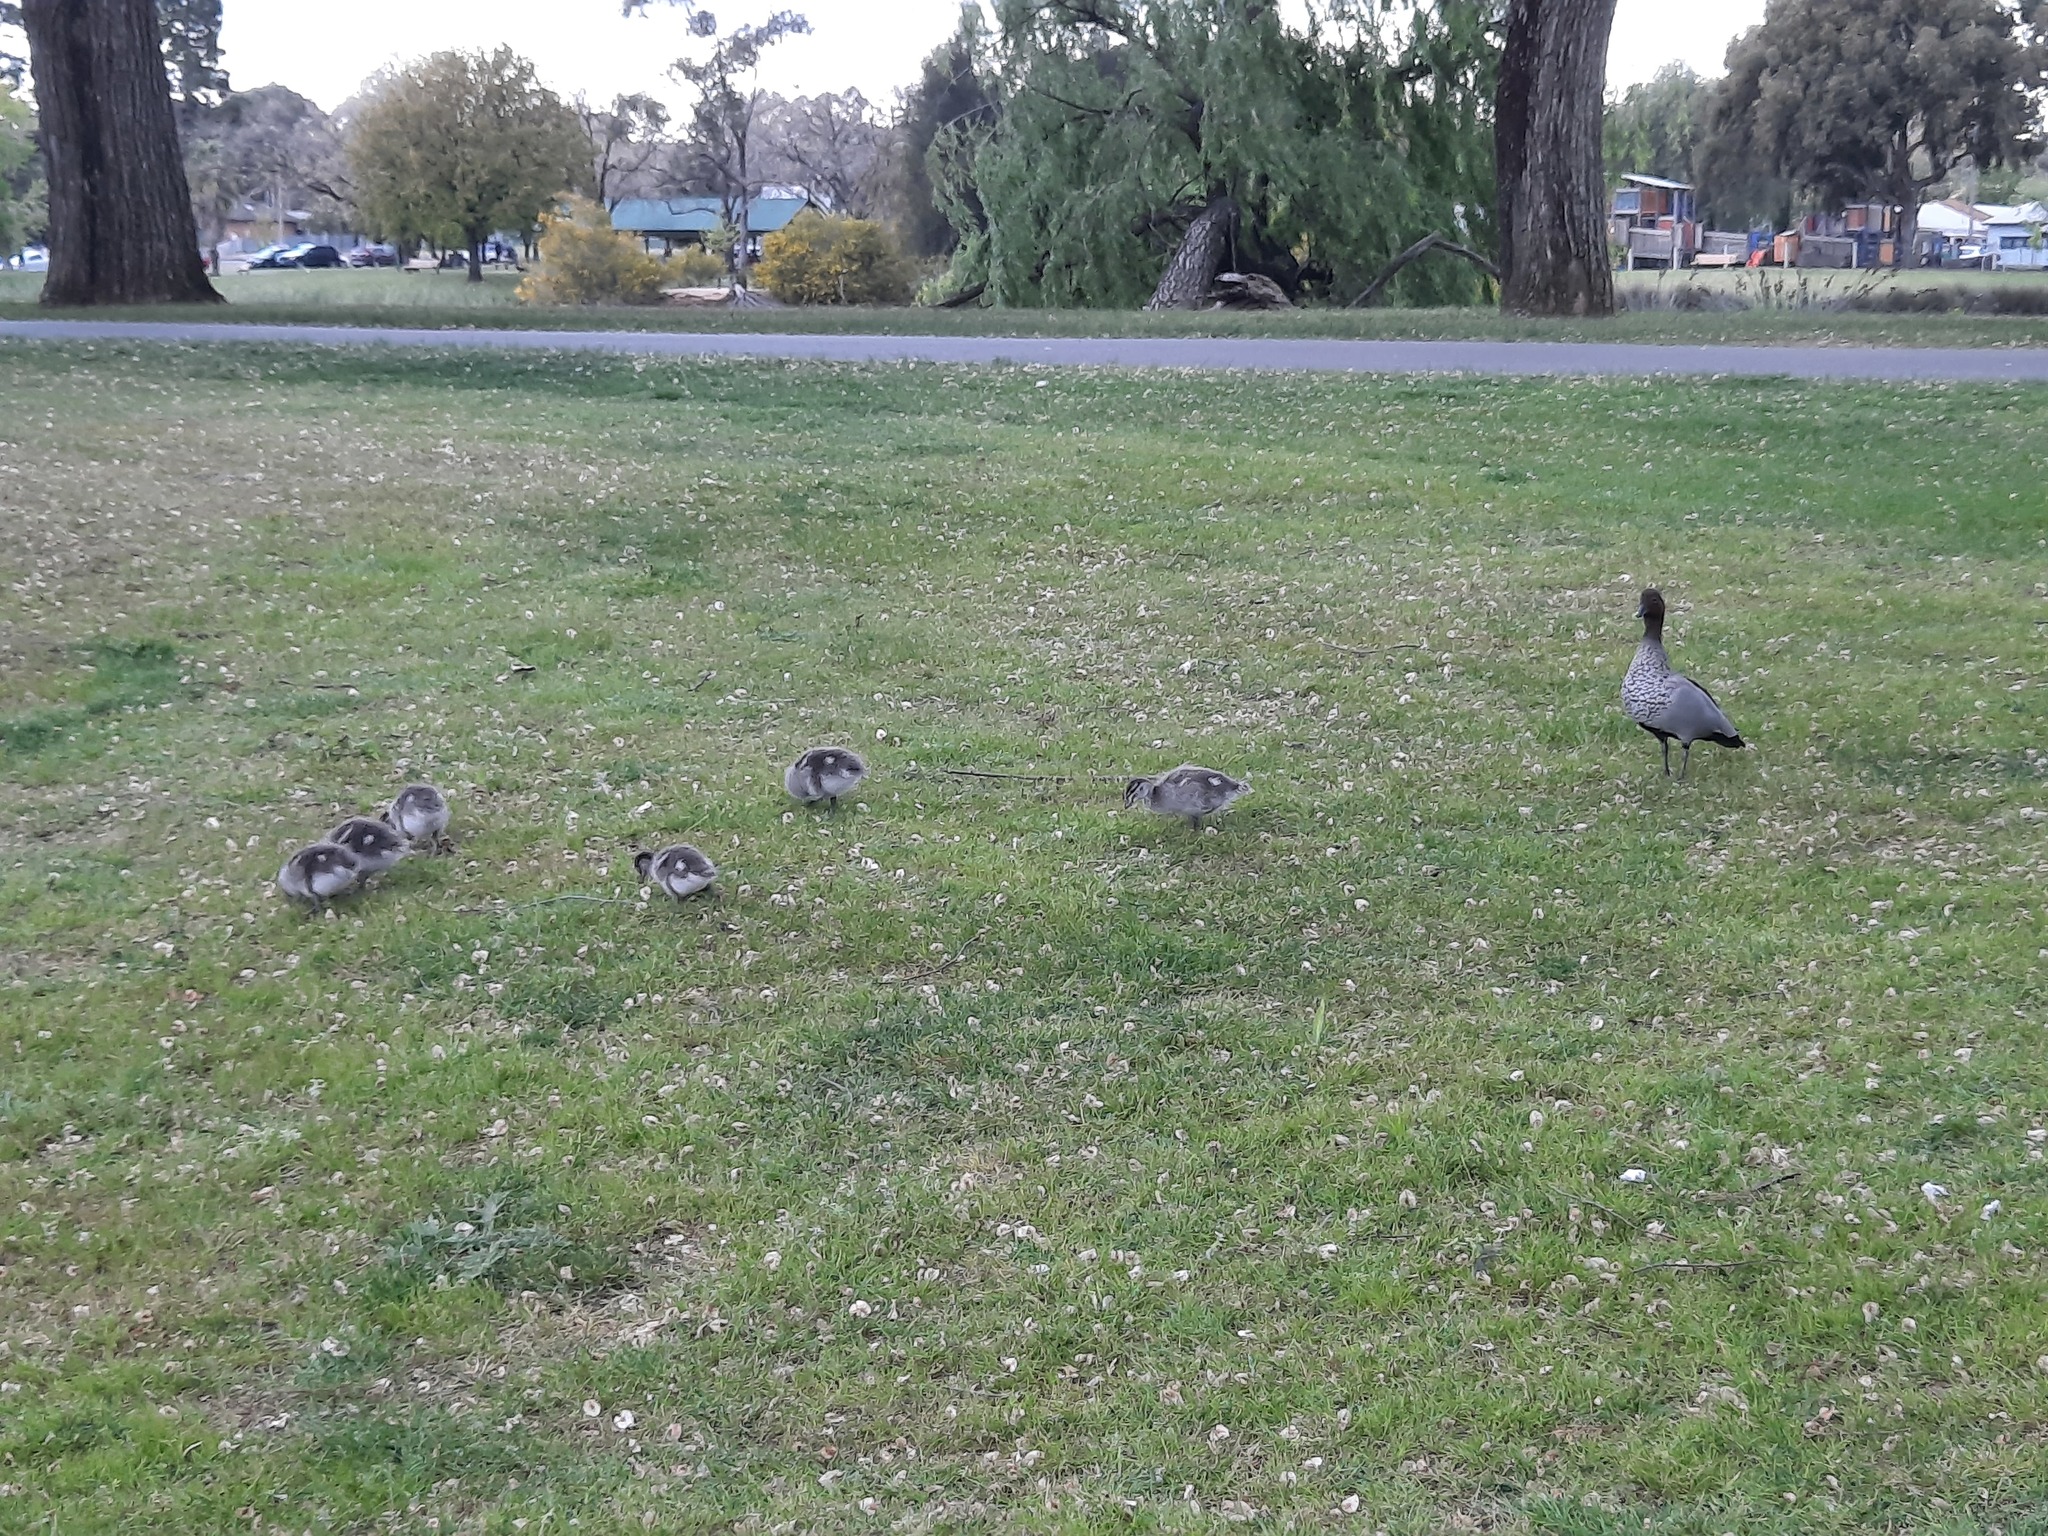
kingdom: Animalia
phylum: Chordata
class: Aves
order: Anseriformes
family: Anatidae
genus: Chenonetta
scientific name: Chenonetta jubata
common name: Maned duck
